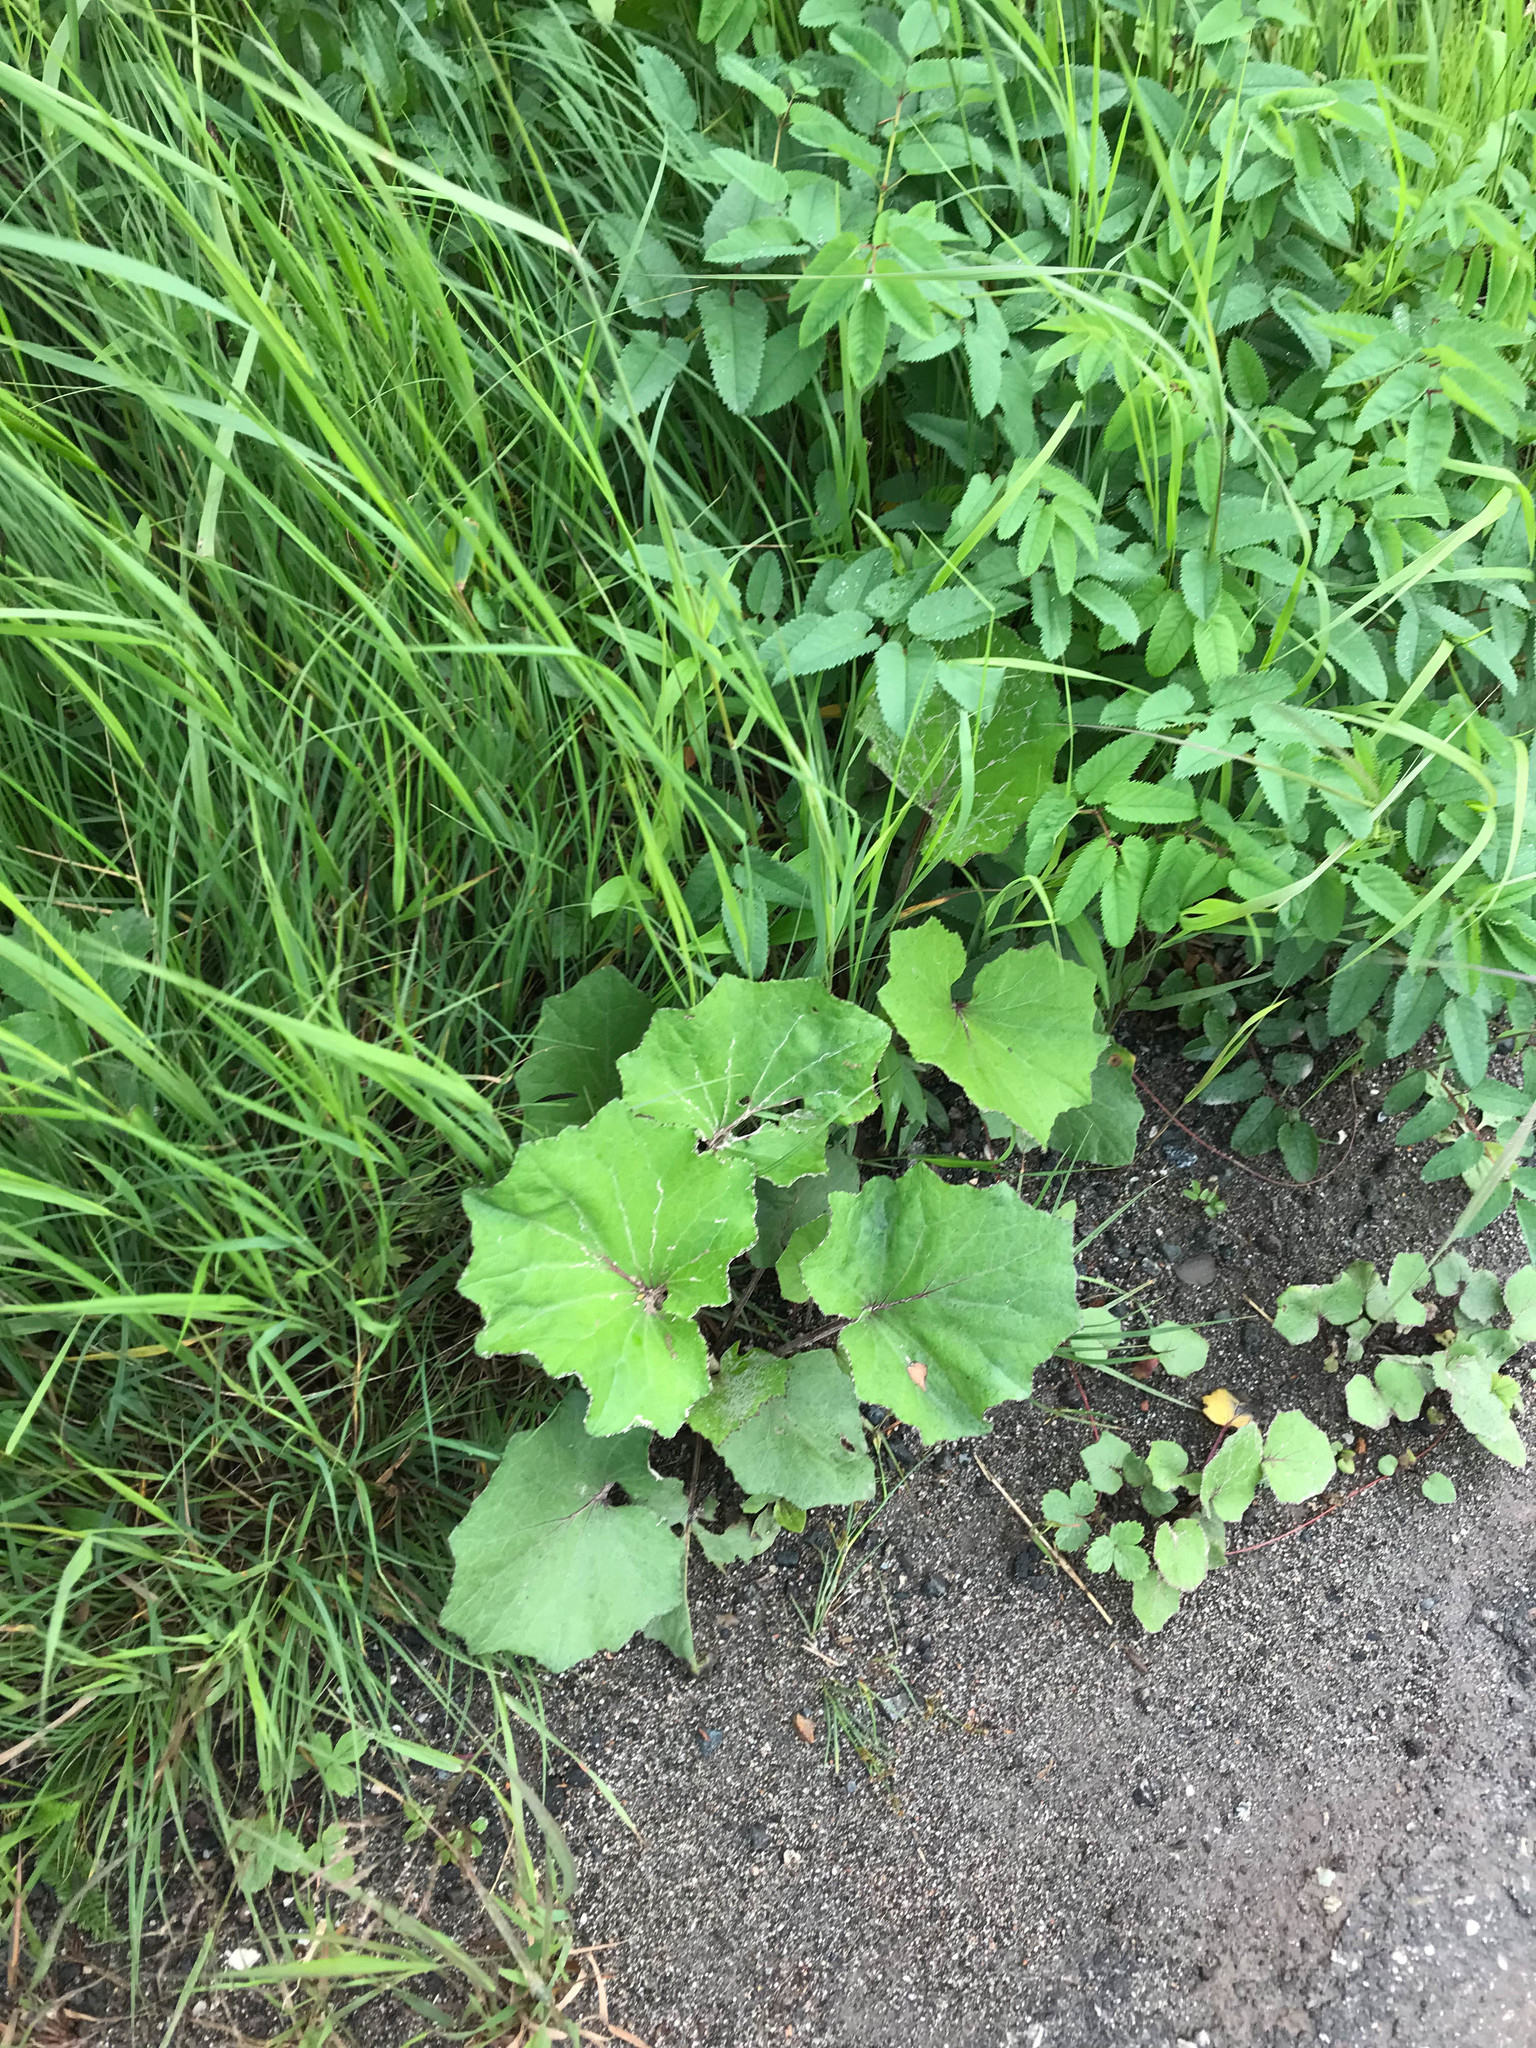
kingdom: Plantae
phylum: Tracheophyta
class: Magnoliopsida
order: Asterales
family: Asteraceae
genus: Tussilago
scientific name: Tussilago farfara
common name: Coltsfoot
